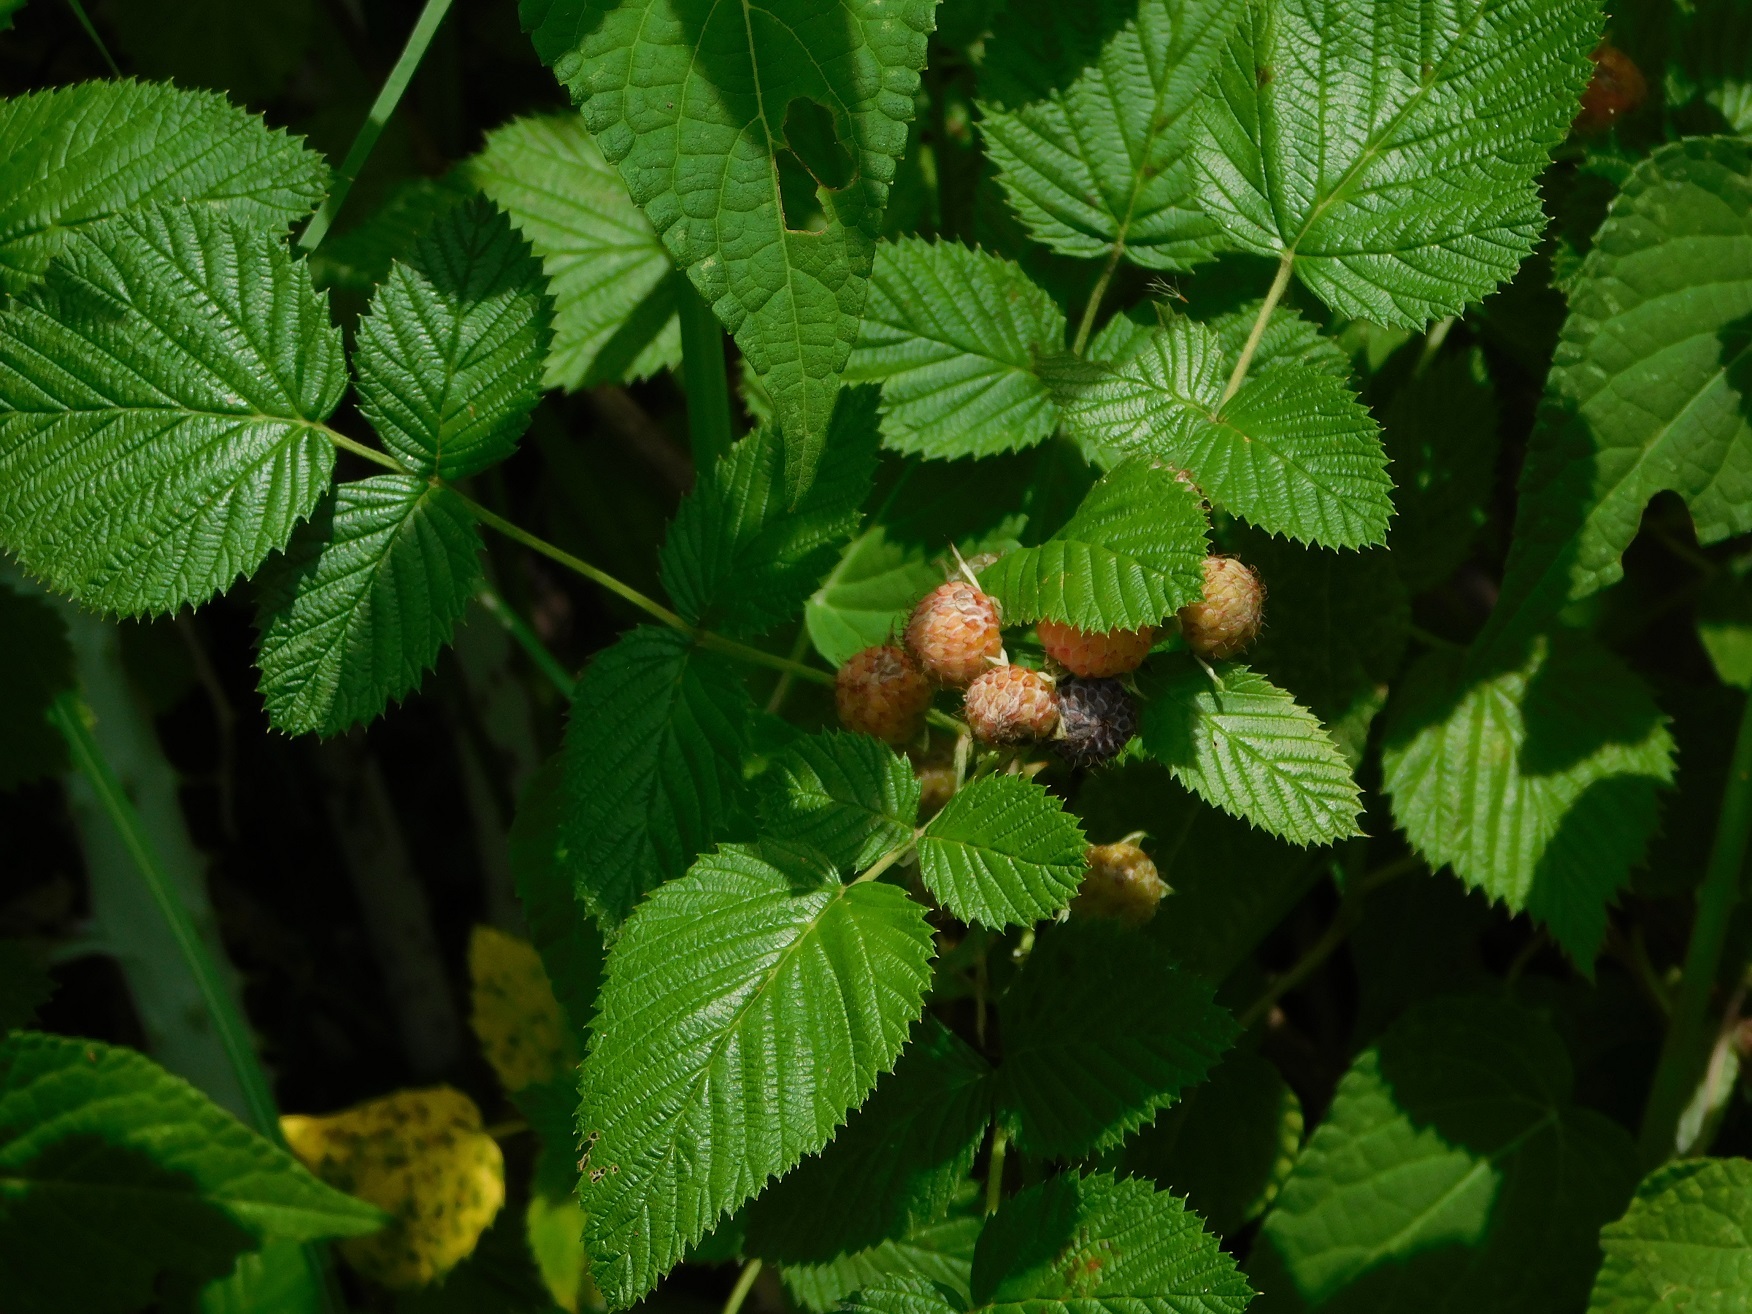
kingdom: Plantae
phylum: Tracheophyta
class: Magnoliopsida
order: Rosales
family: Rosaceae
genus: Rubus
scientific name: Rubus niveus
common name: Snowpeaks raspberry
